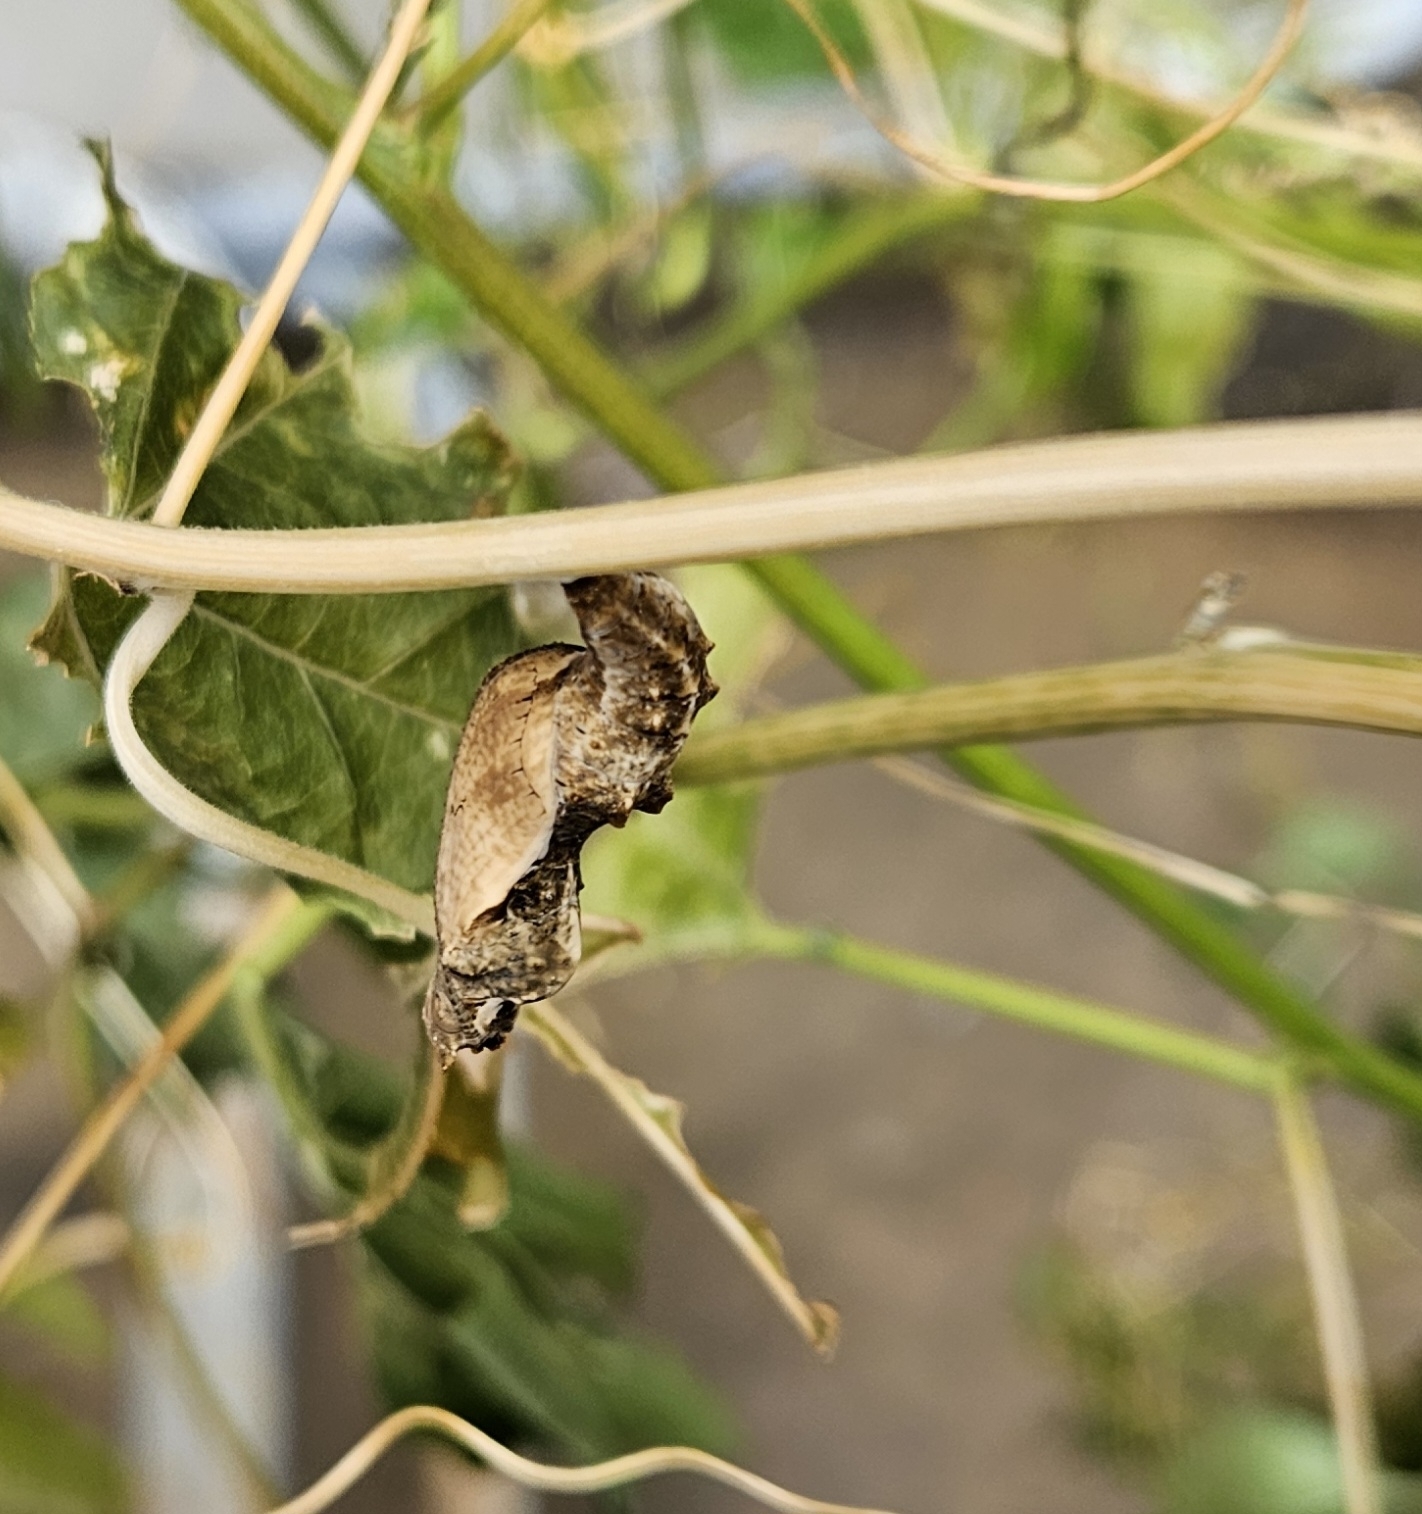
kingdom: Animalia
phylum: Arthropoda
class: Insecta
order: Lepidoptera
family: Nymphalidae
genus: Dione
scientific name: Dione vanillae
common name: Gulf fritillary
